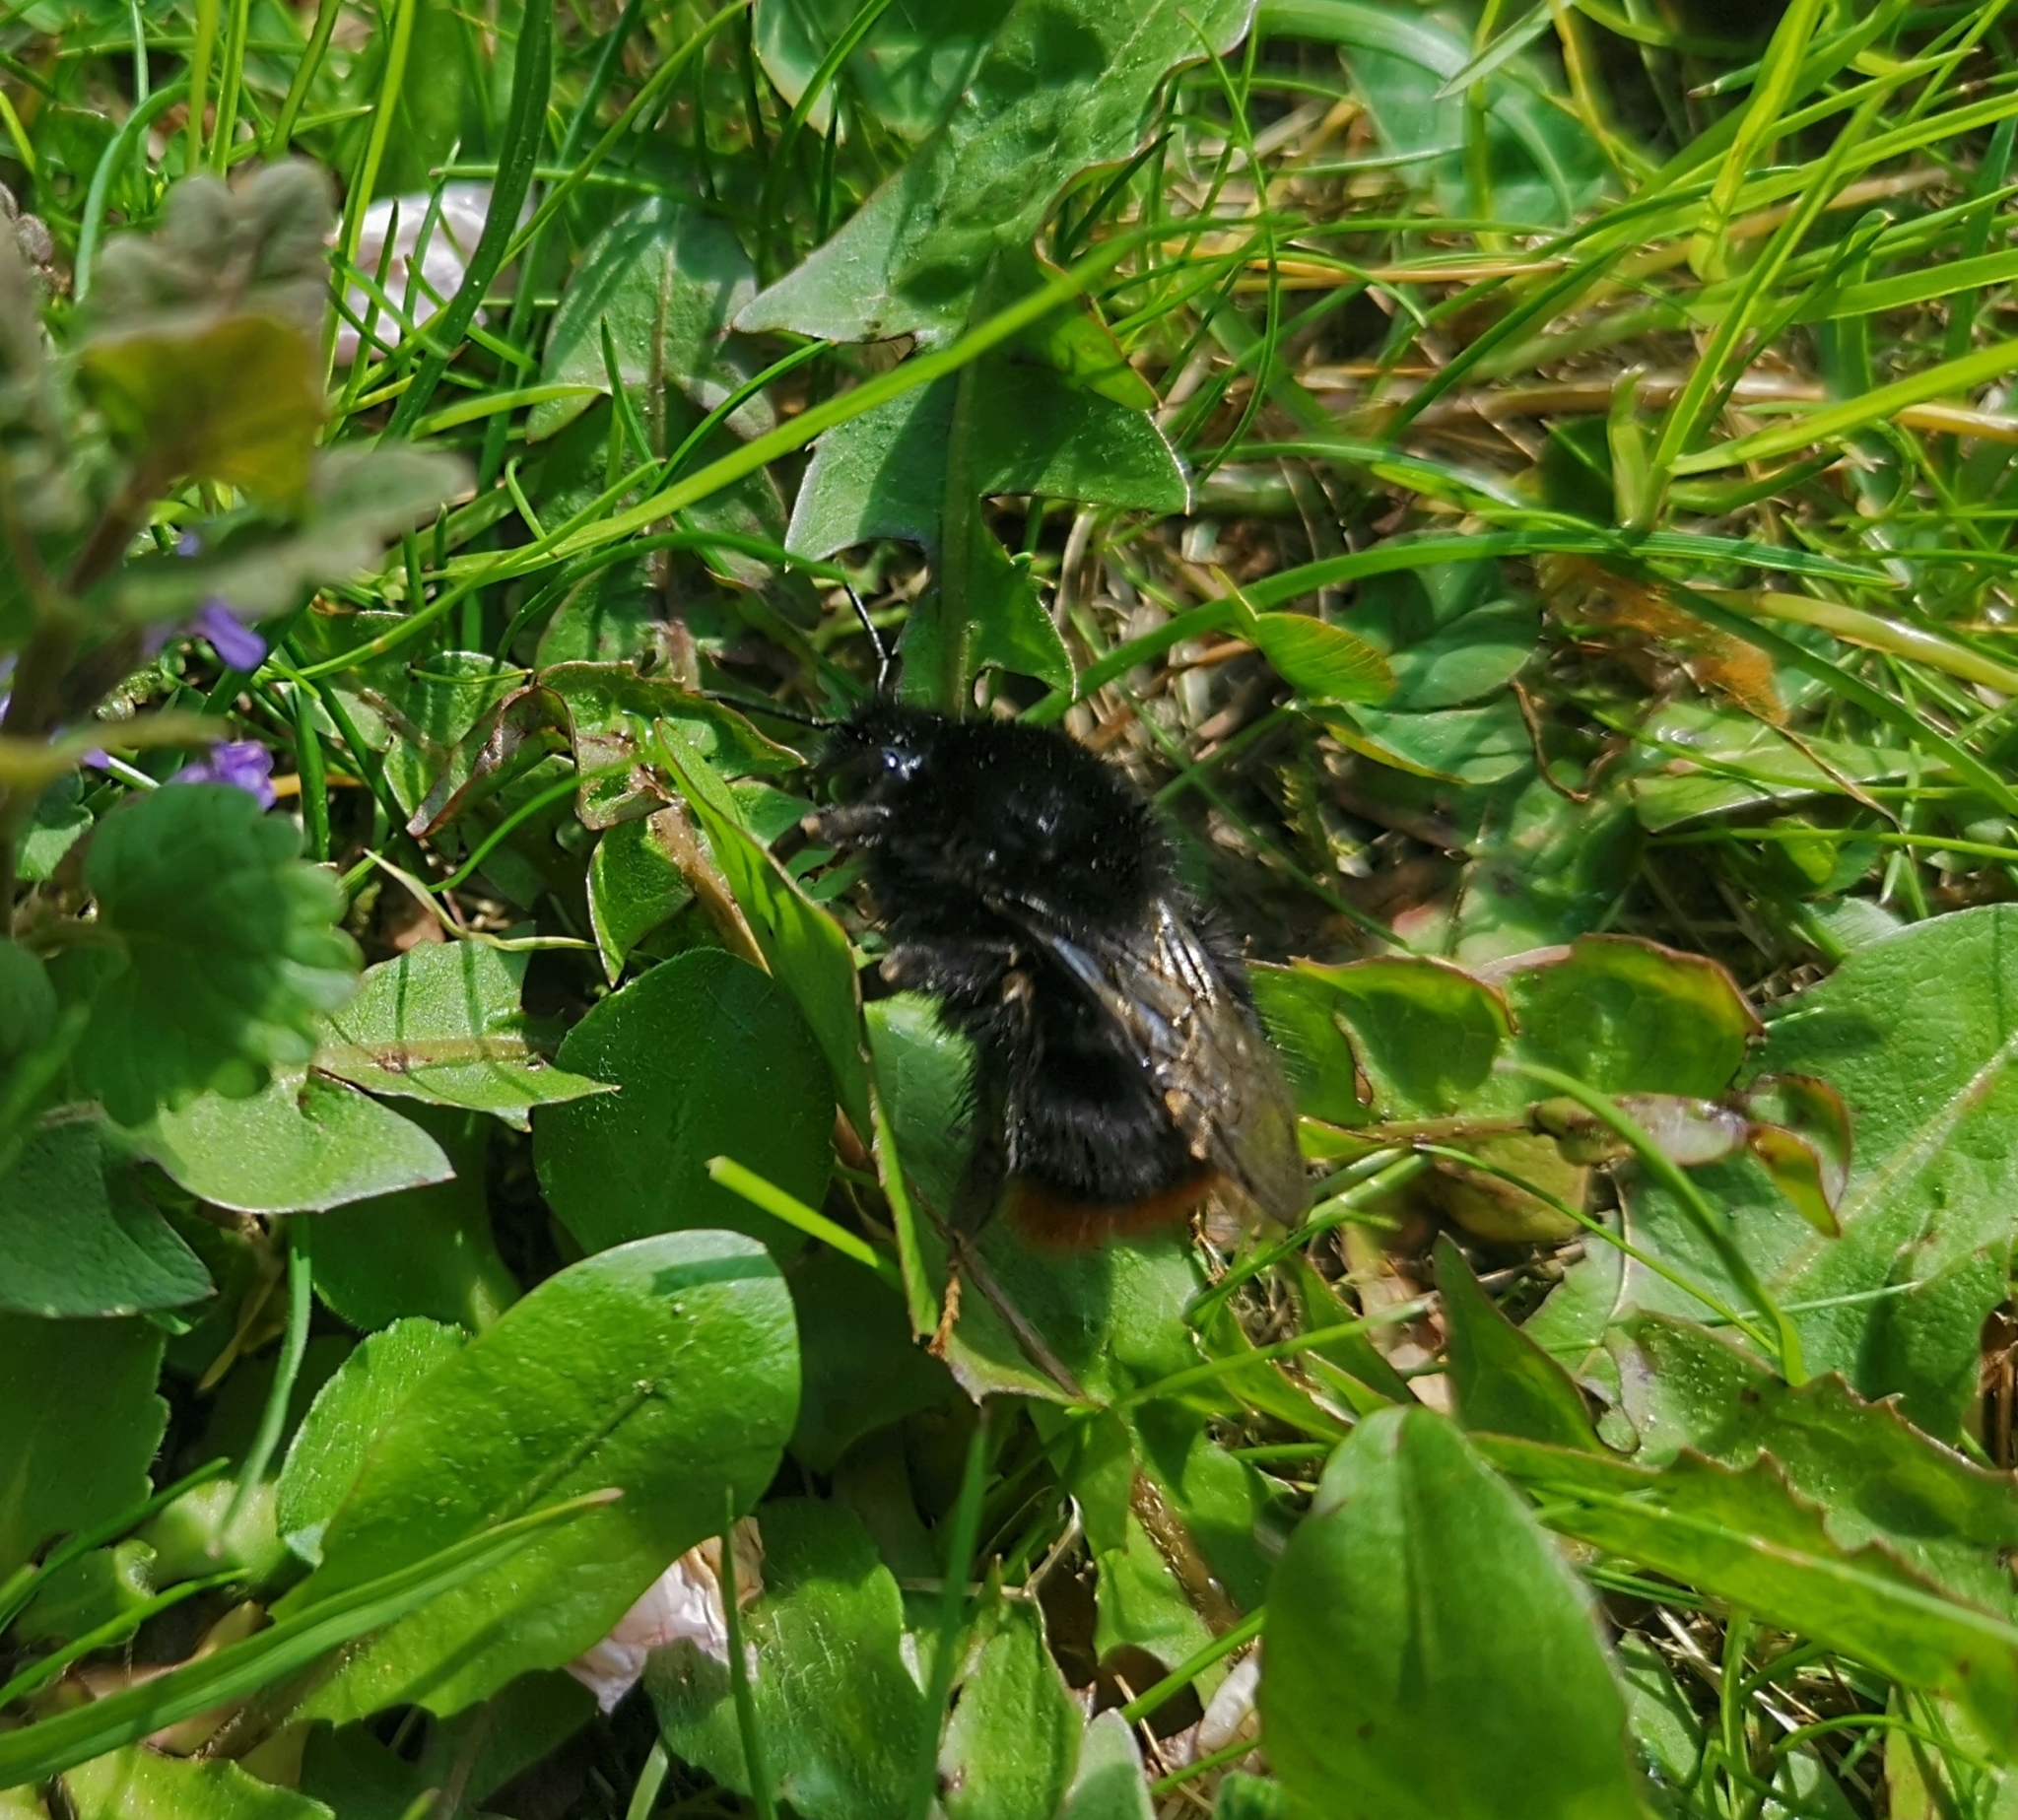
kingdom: Animalia
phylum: Arthropoda
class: Insecta
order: Hymenoptera
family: Apidae
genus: Bombus
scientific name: Bombus lapidarius
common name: Large red-tailed humble-bee
